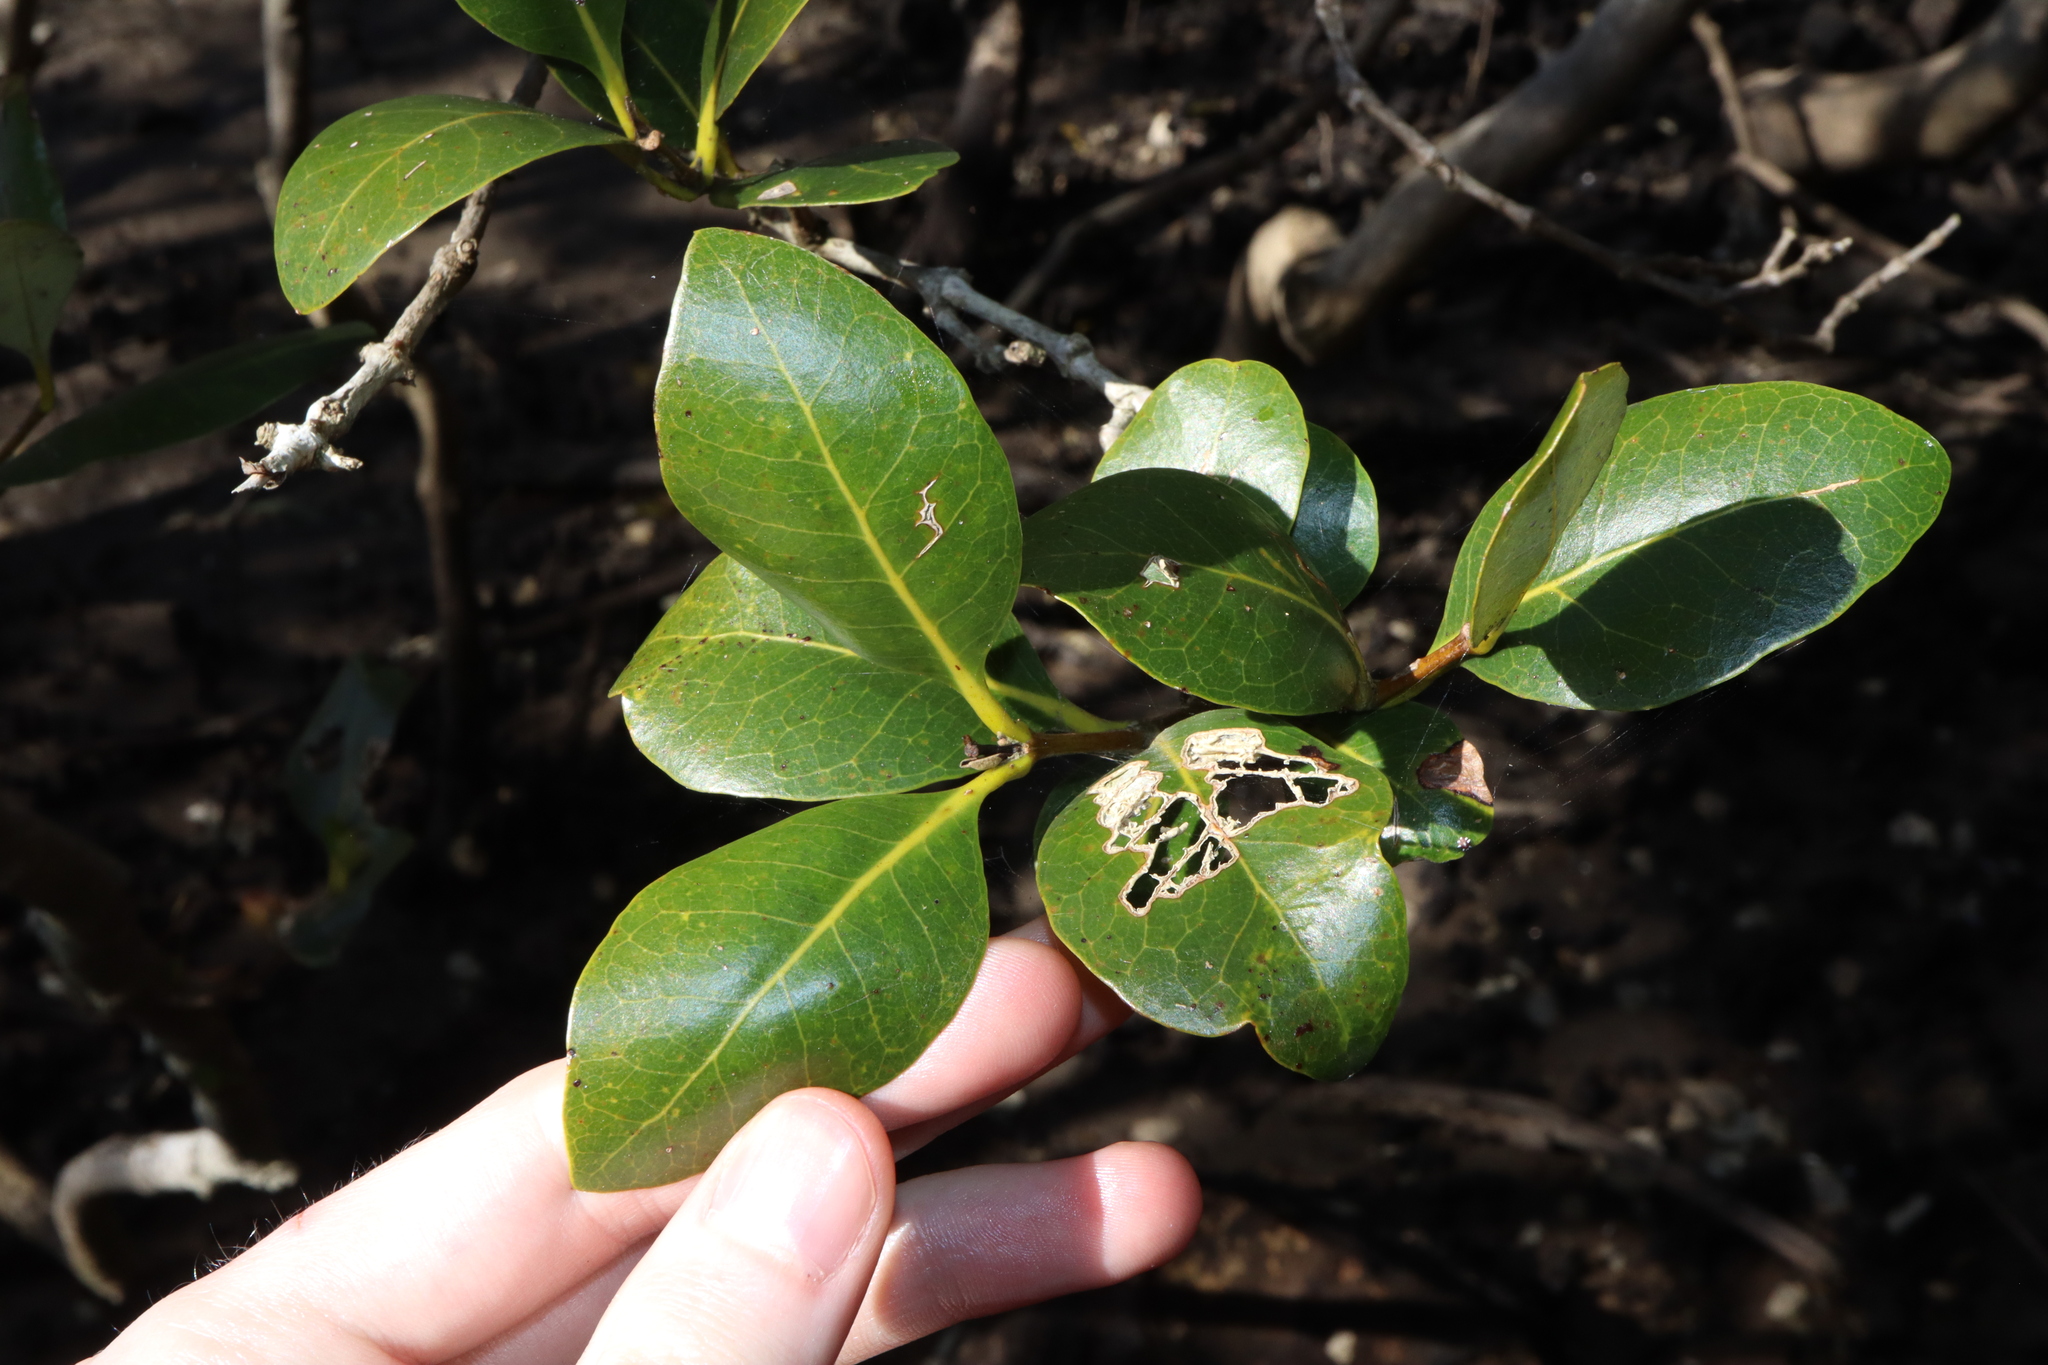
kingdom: Plantae
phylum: Tracheophyta
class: Magnoliopsida
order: Lamiales
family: Acanthaceae
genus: Avicennia
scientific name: Avicennia marina
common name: Gray mangrove
